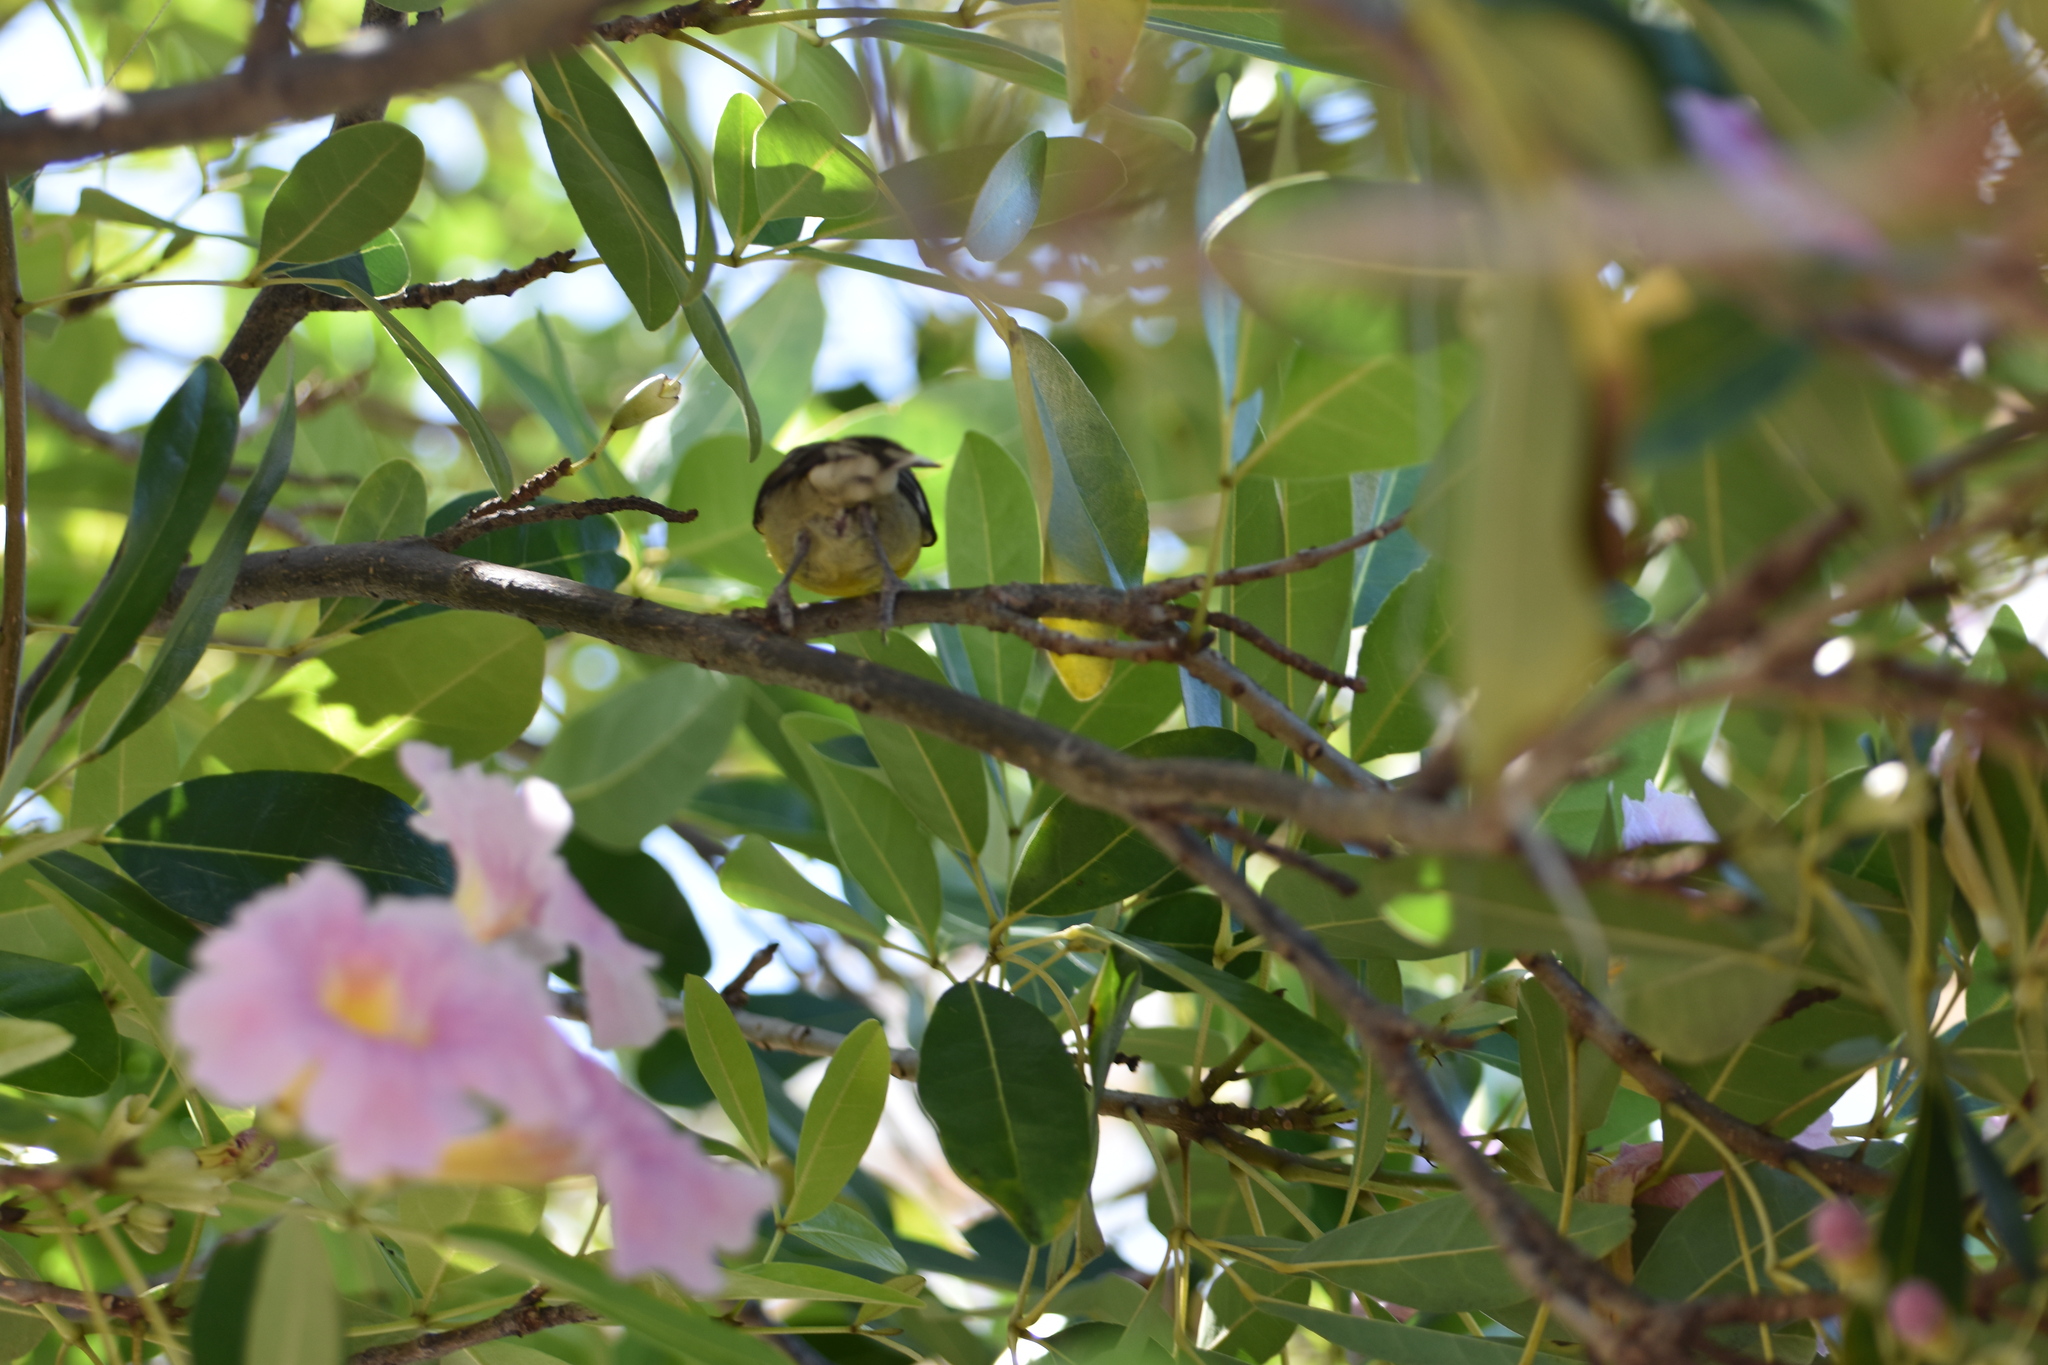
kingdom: Animalia
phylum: Chordata
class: Aves
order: Passeriformes
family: Thraupidae
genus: Coereba
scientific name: Coereba flaveola
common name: Bananaquit
